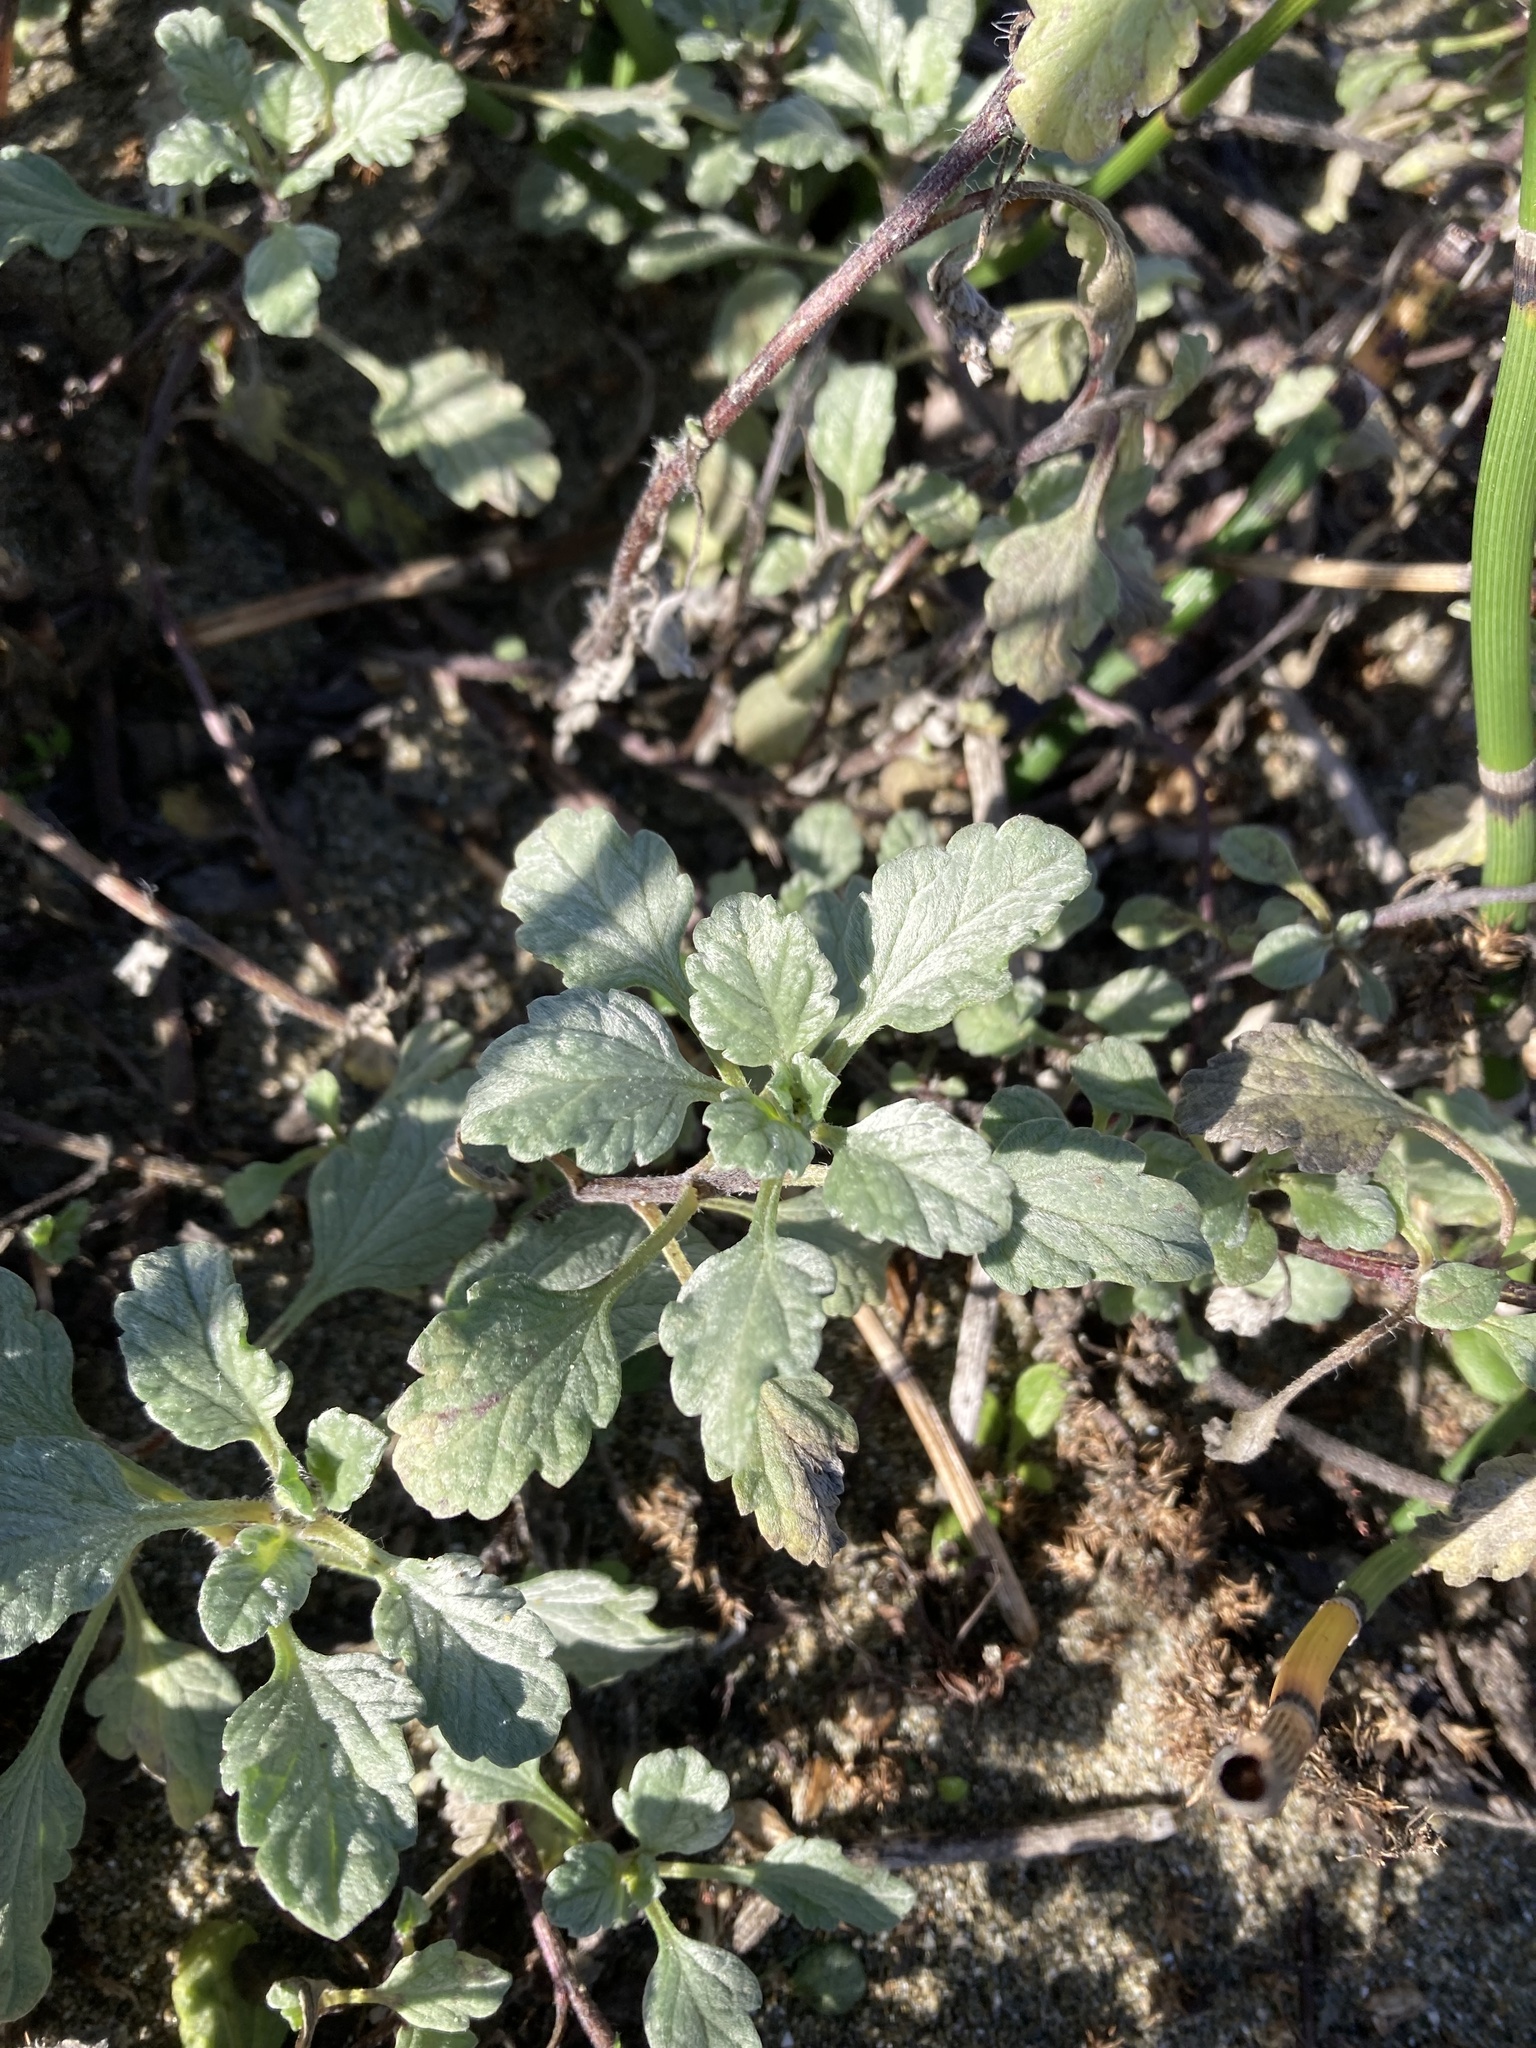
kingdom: Plantae
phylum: Tracheophyta
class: Magnoliopsida
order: Asterales
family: Asteraceae
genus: Ambrosia
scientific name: Ambrosia chamissonis
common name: Beachbur
